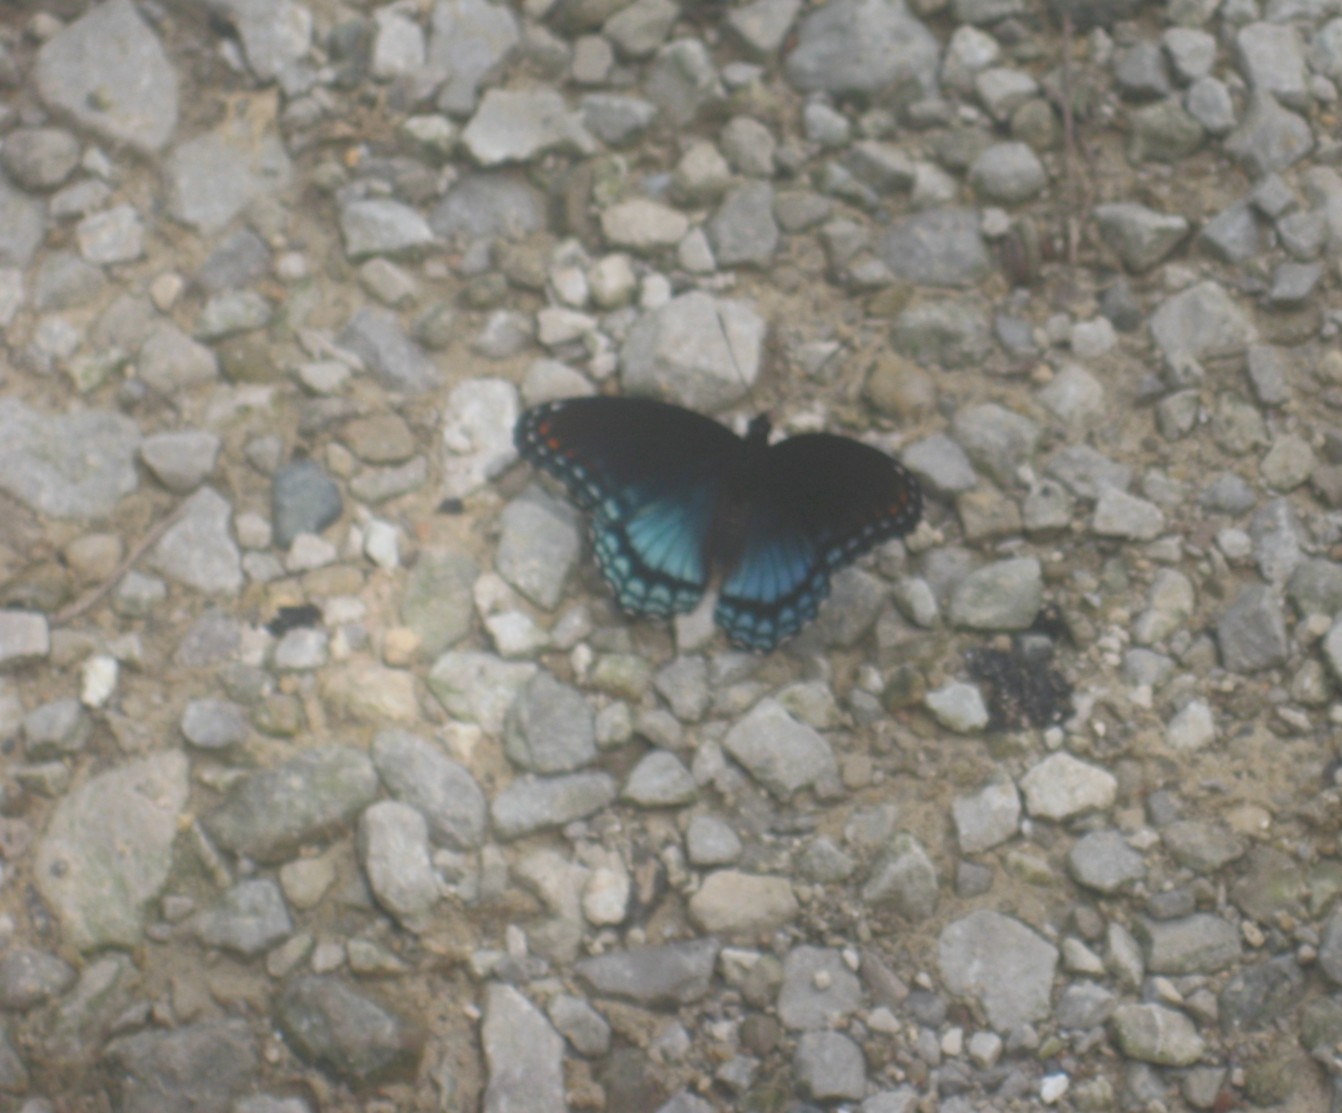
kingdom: Animalia
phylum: Arthropoda
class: Insecta
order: Lepidoptera
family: Nymphalidae
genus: Limenitis
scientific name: Limenitis astyanax
